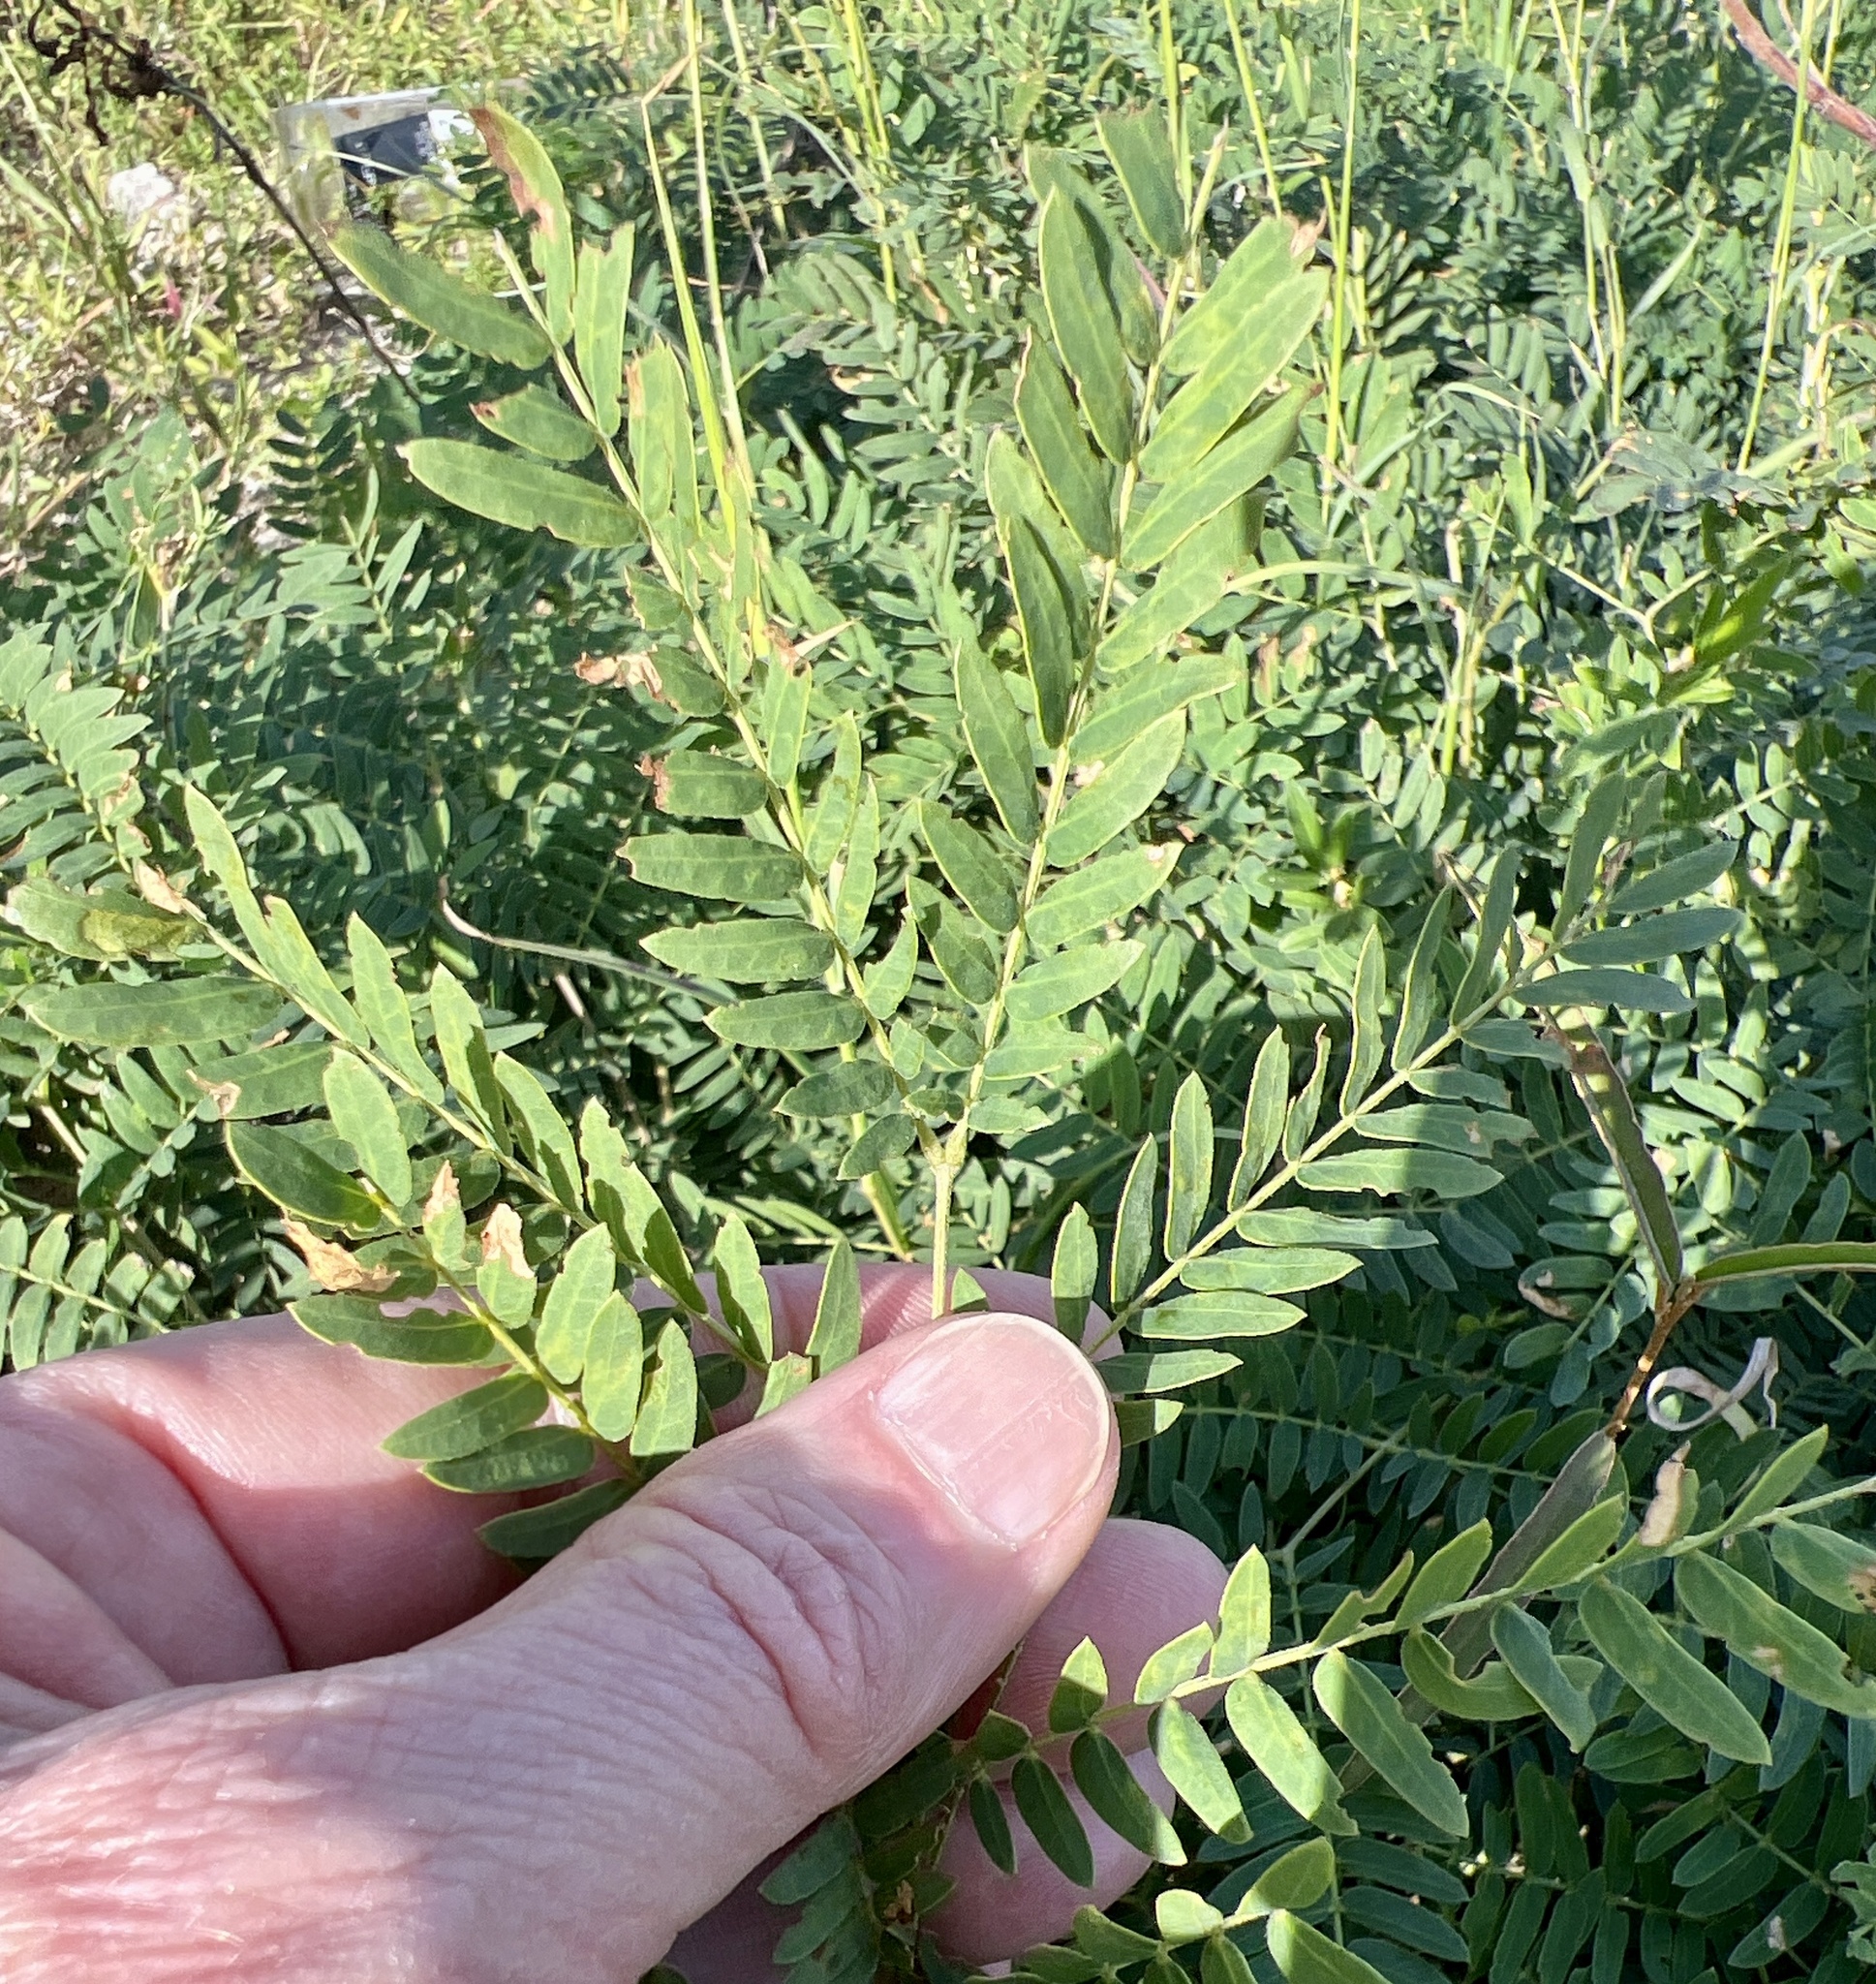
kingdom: Plantae
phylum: Tracheophyta
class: Magnoliopsida
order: Fabales
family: Fabaceae
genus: Leucaena
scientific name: Leucaena leucocephala
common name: White leadtree
